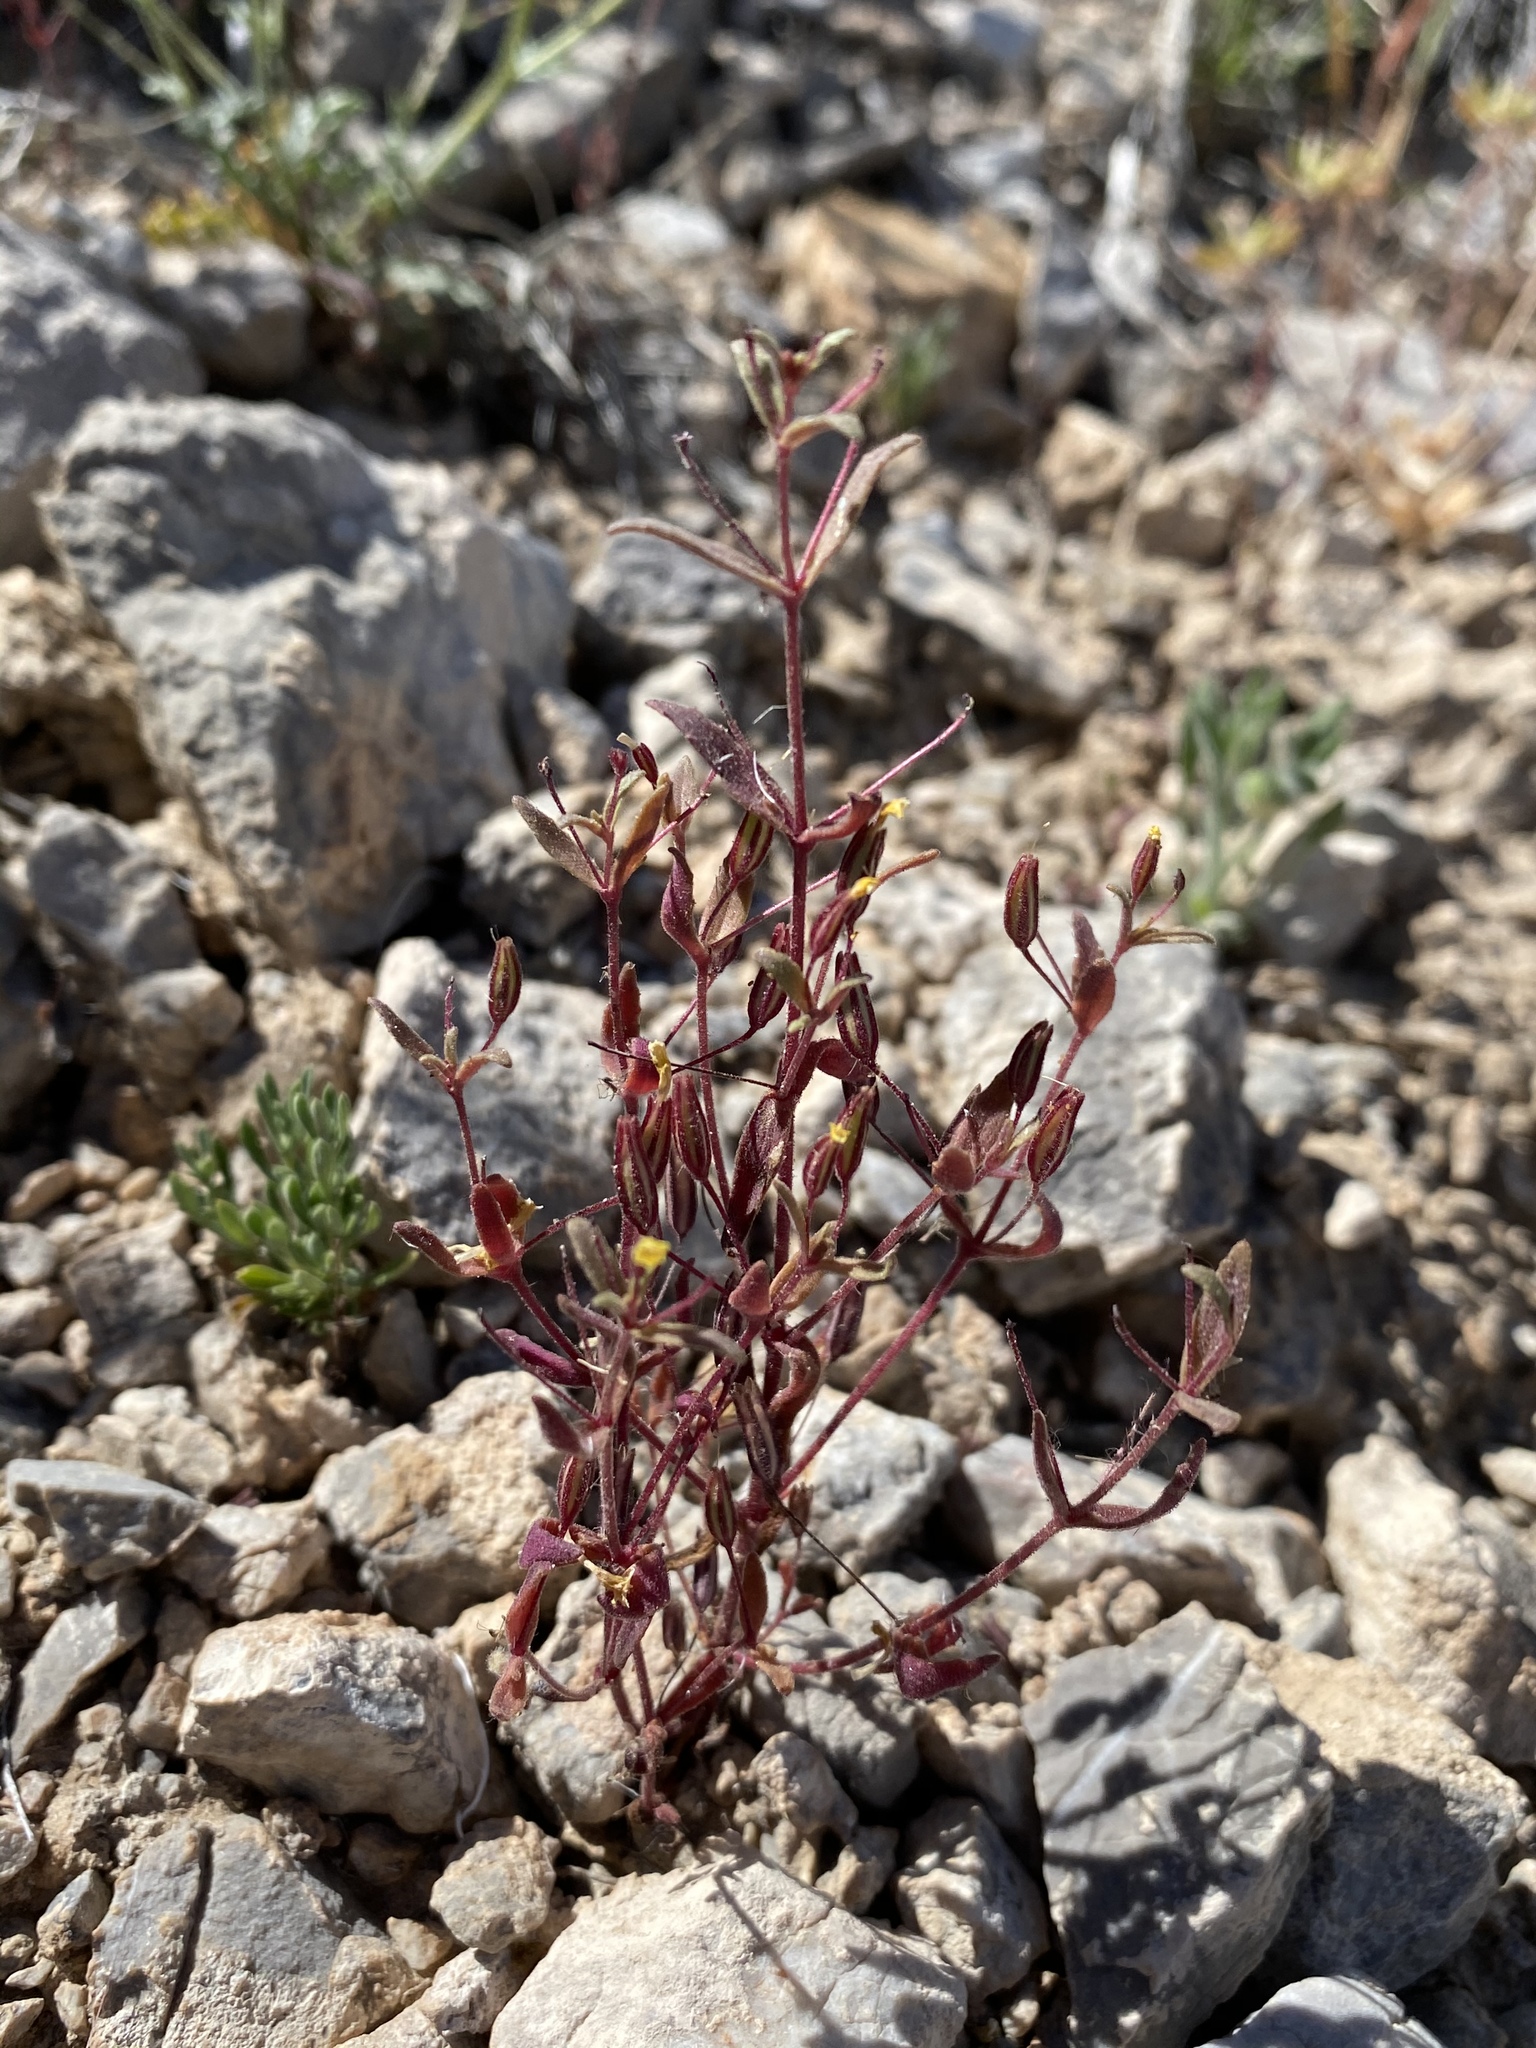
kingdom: Plantae
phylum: Tracheophyta
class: Magnoliopsida
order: Lamiales
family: Phrymaceae
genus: Erythranthe
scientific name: Erythranthe rubella
